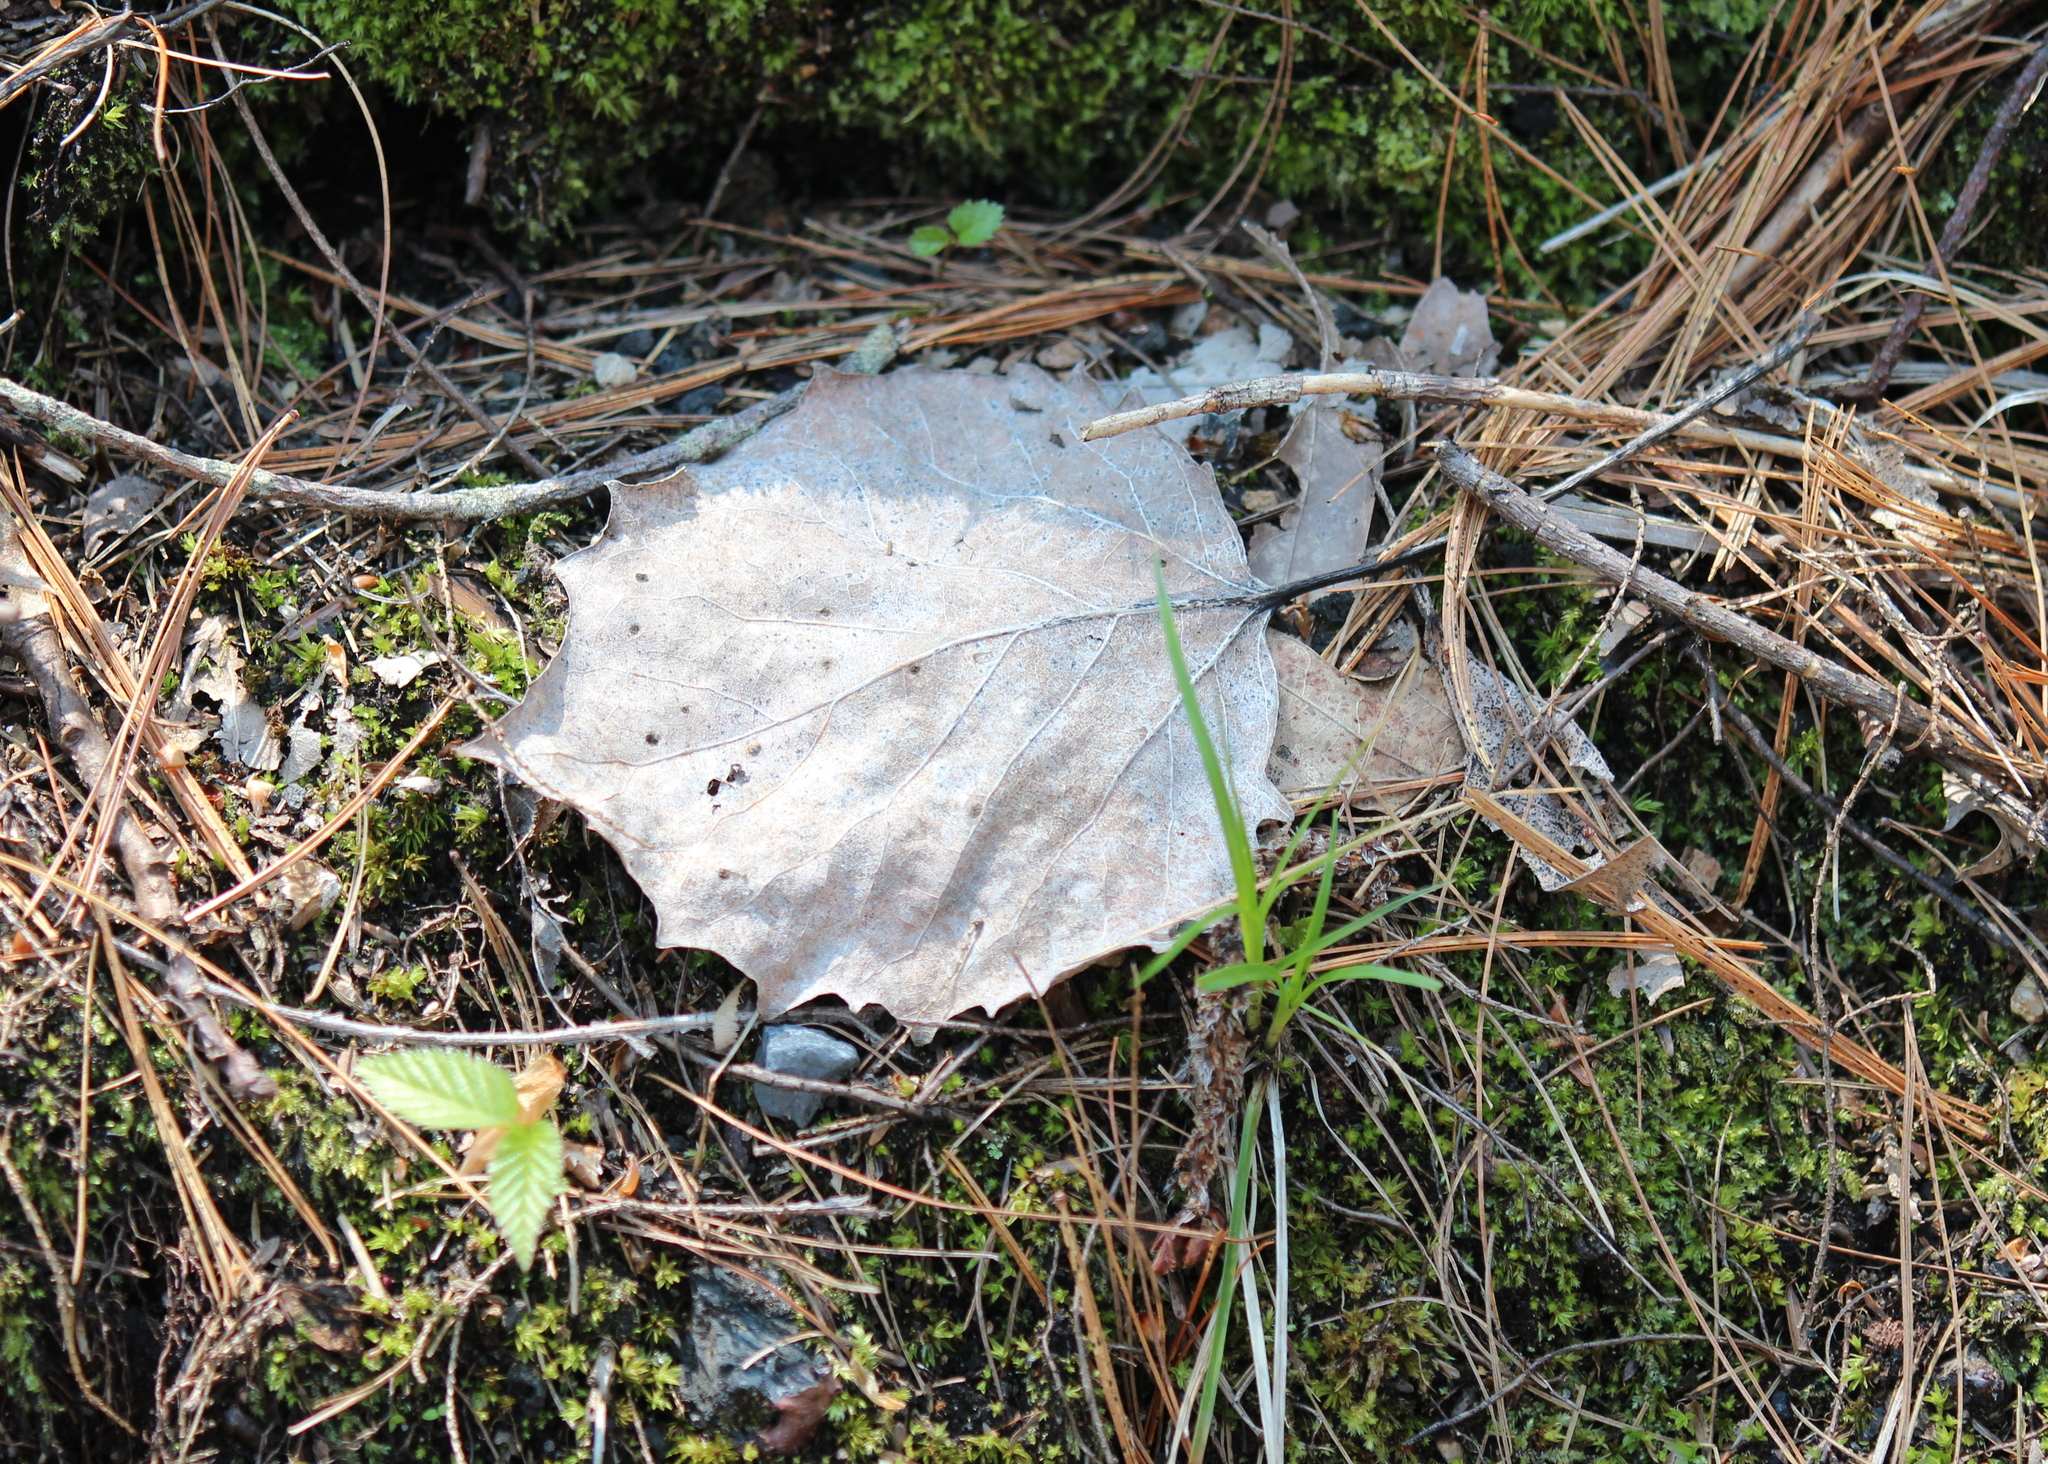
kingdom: Plantae
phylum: Tracheophyta
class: Magnoliopsida
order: Malpighiales
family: Salicaceae
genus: Populus
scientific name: Populus grandidentata
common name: Bigtooth aspen
